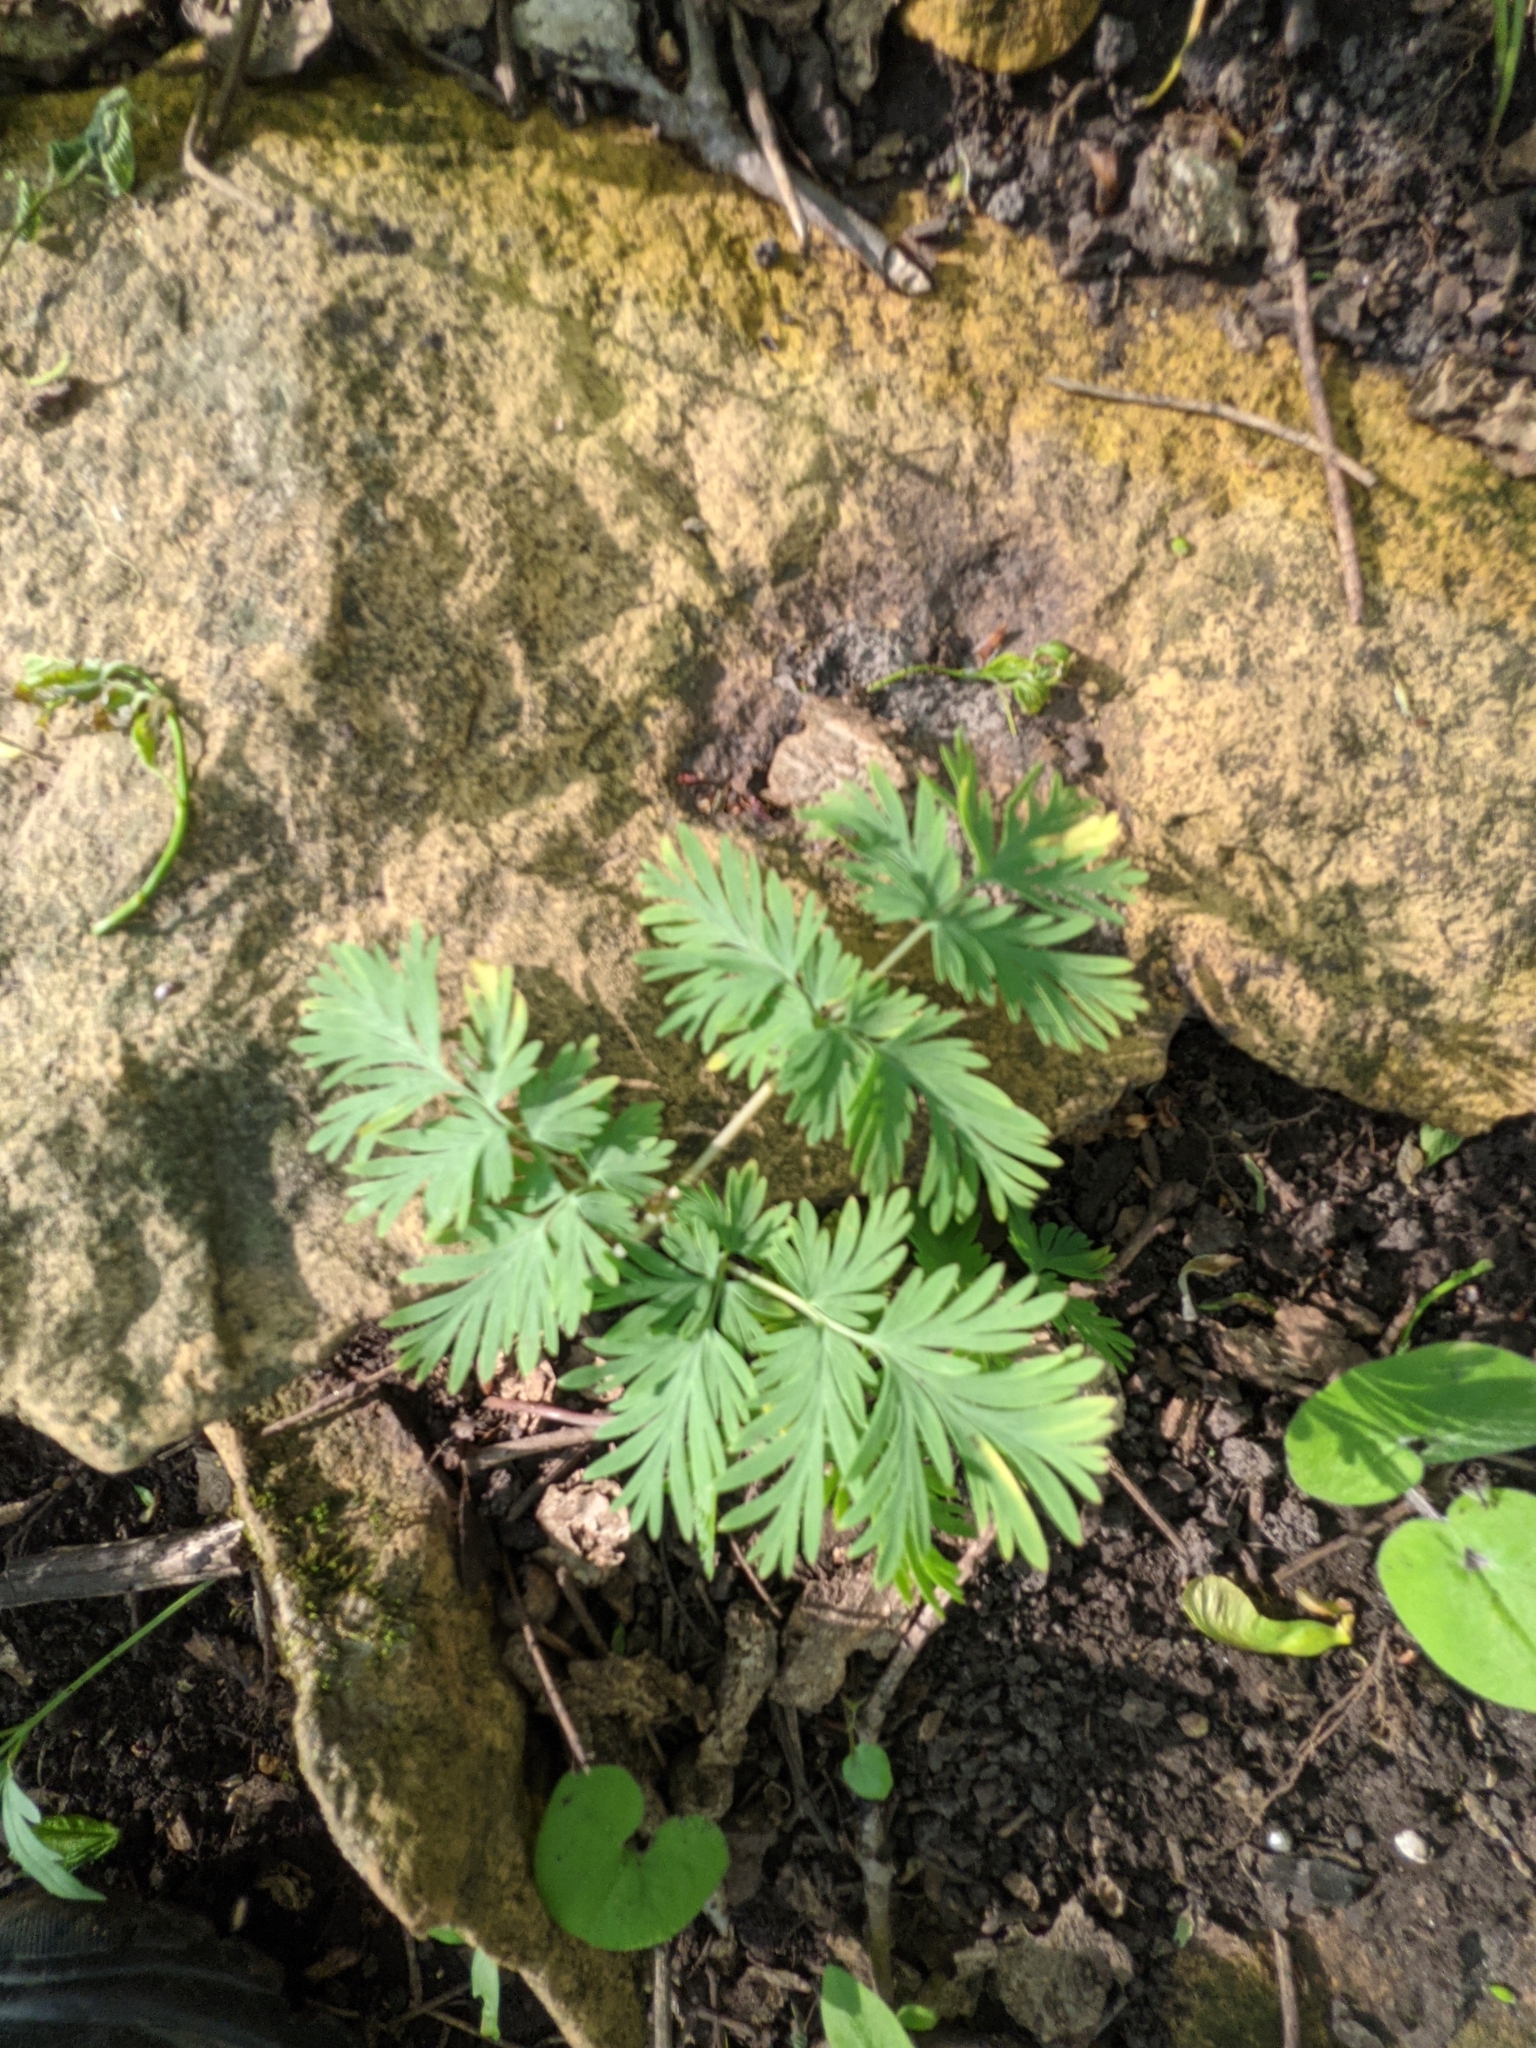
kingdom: Plantae
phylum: Tracheophyta
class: Magnoliopsida
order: Ranunculales
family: Papaveraceae
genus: Dicentra
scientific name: Dicentra cucullaria
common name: Dutchman's breeches
